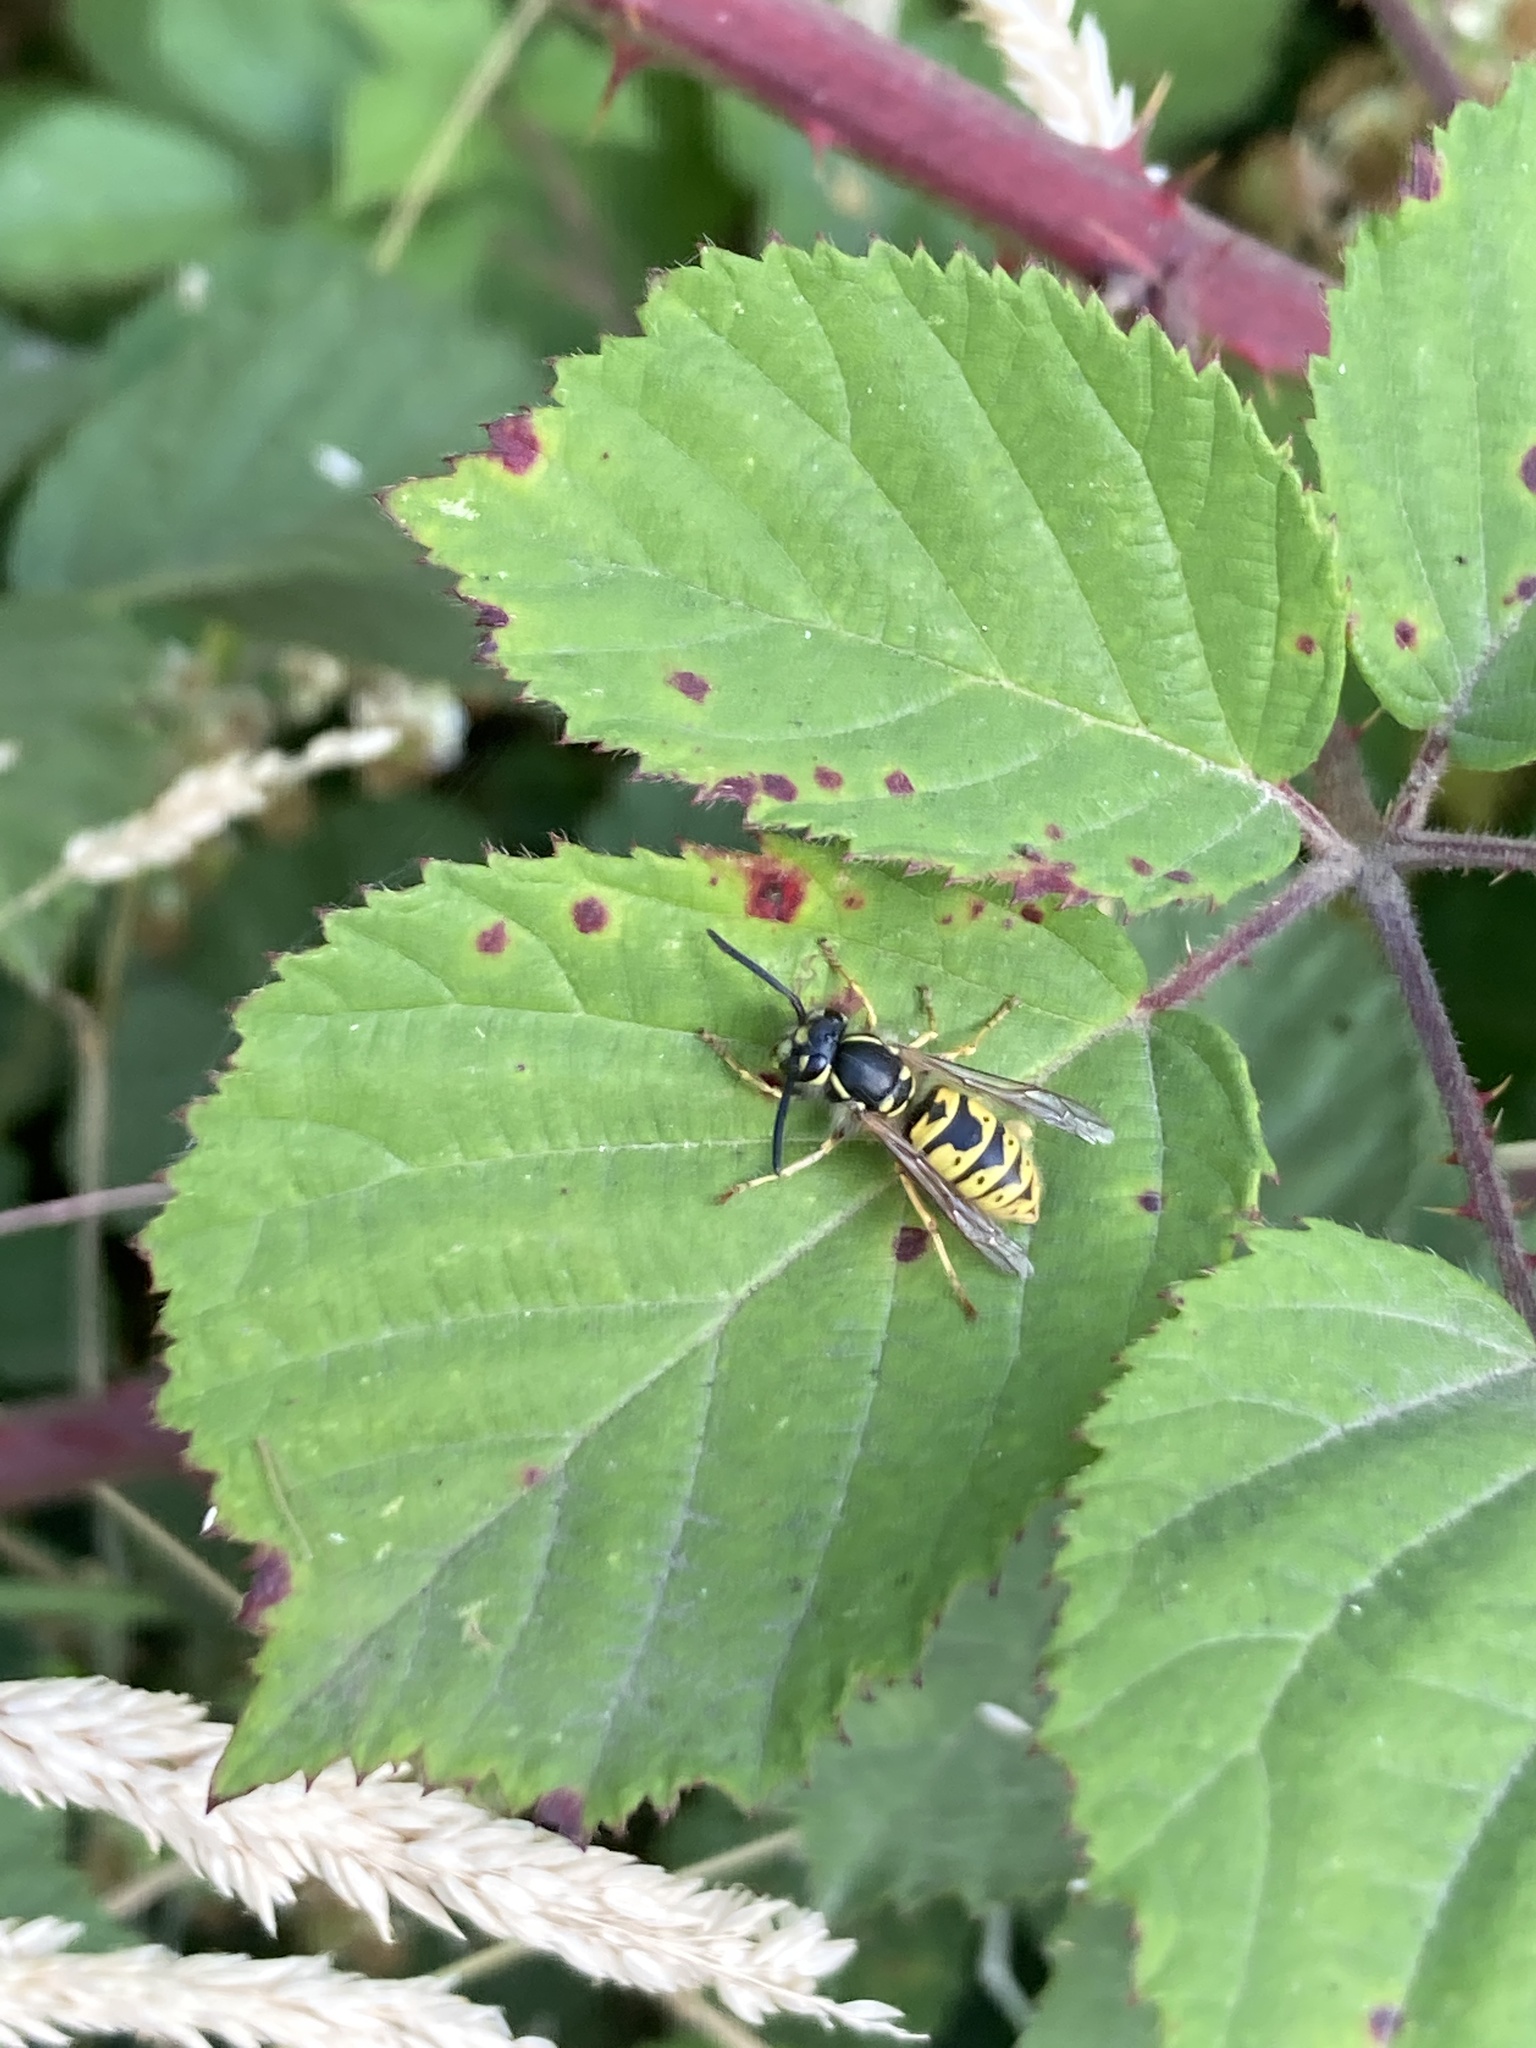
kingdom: Animalia
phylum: Arthropoda
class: Insecta
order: Hymenoptera
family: Vespidae
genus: Vespula
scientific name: Vespula vulgaris
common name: Common wasp
